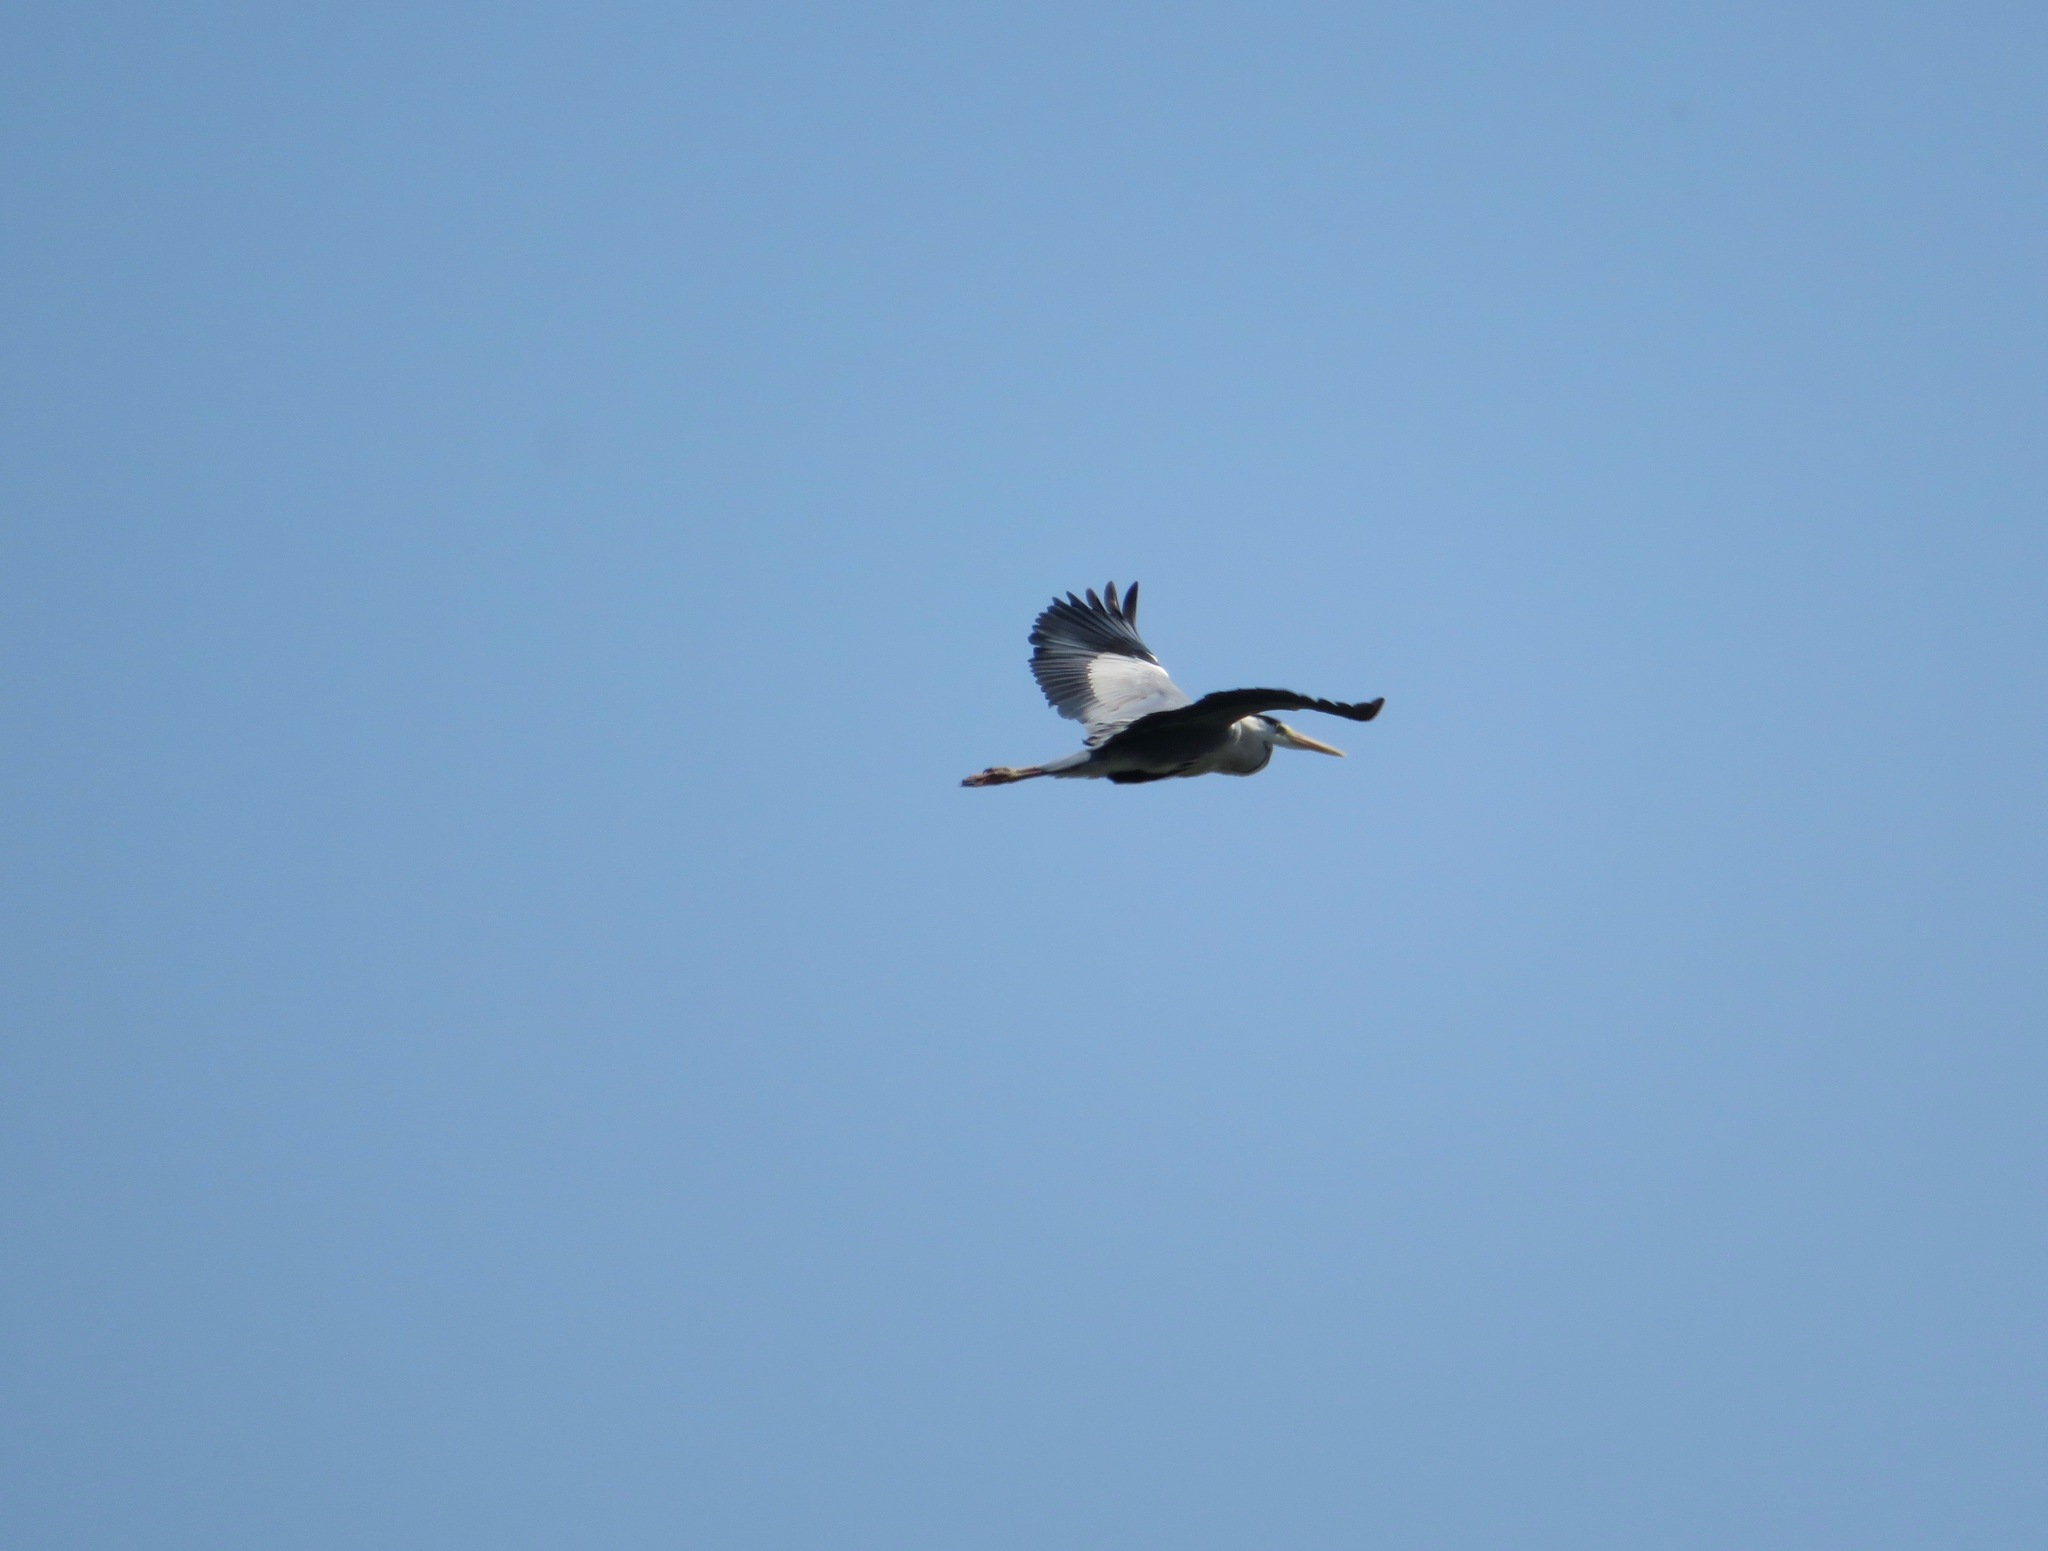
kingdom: Animalia
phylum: Chordata
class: Aves
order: Pelecaniformes
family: Ardeidae
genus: Ardea
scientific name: Ardea cinerea
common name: Grey heron
